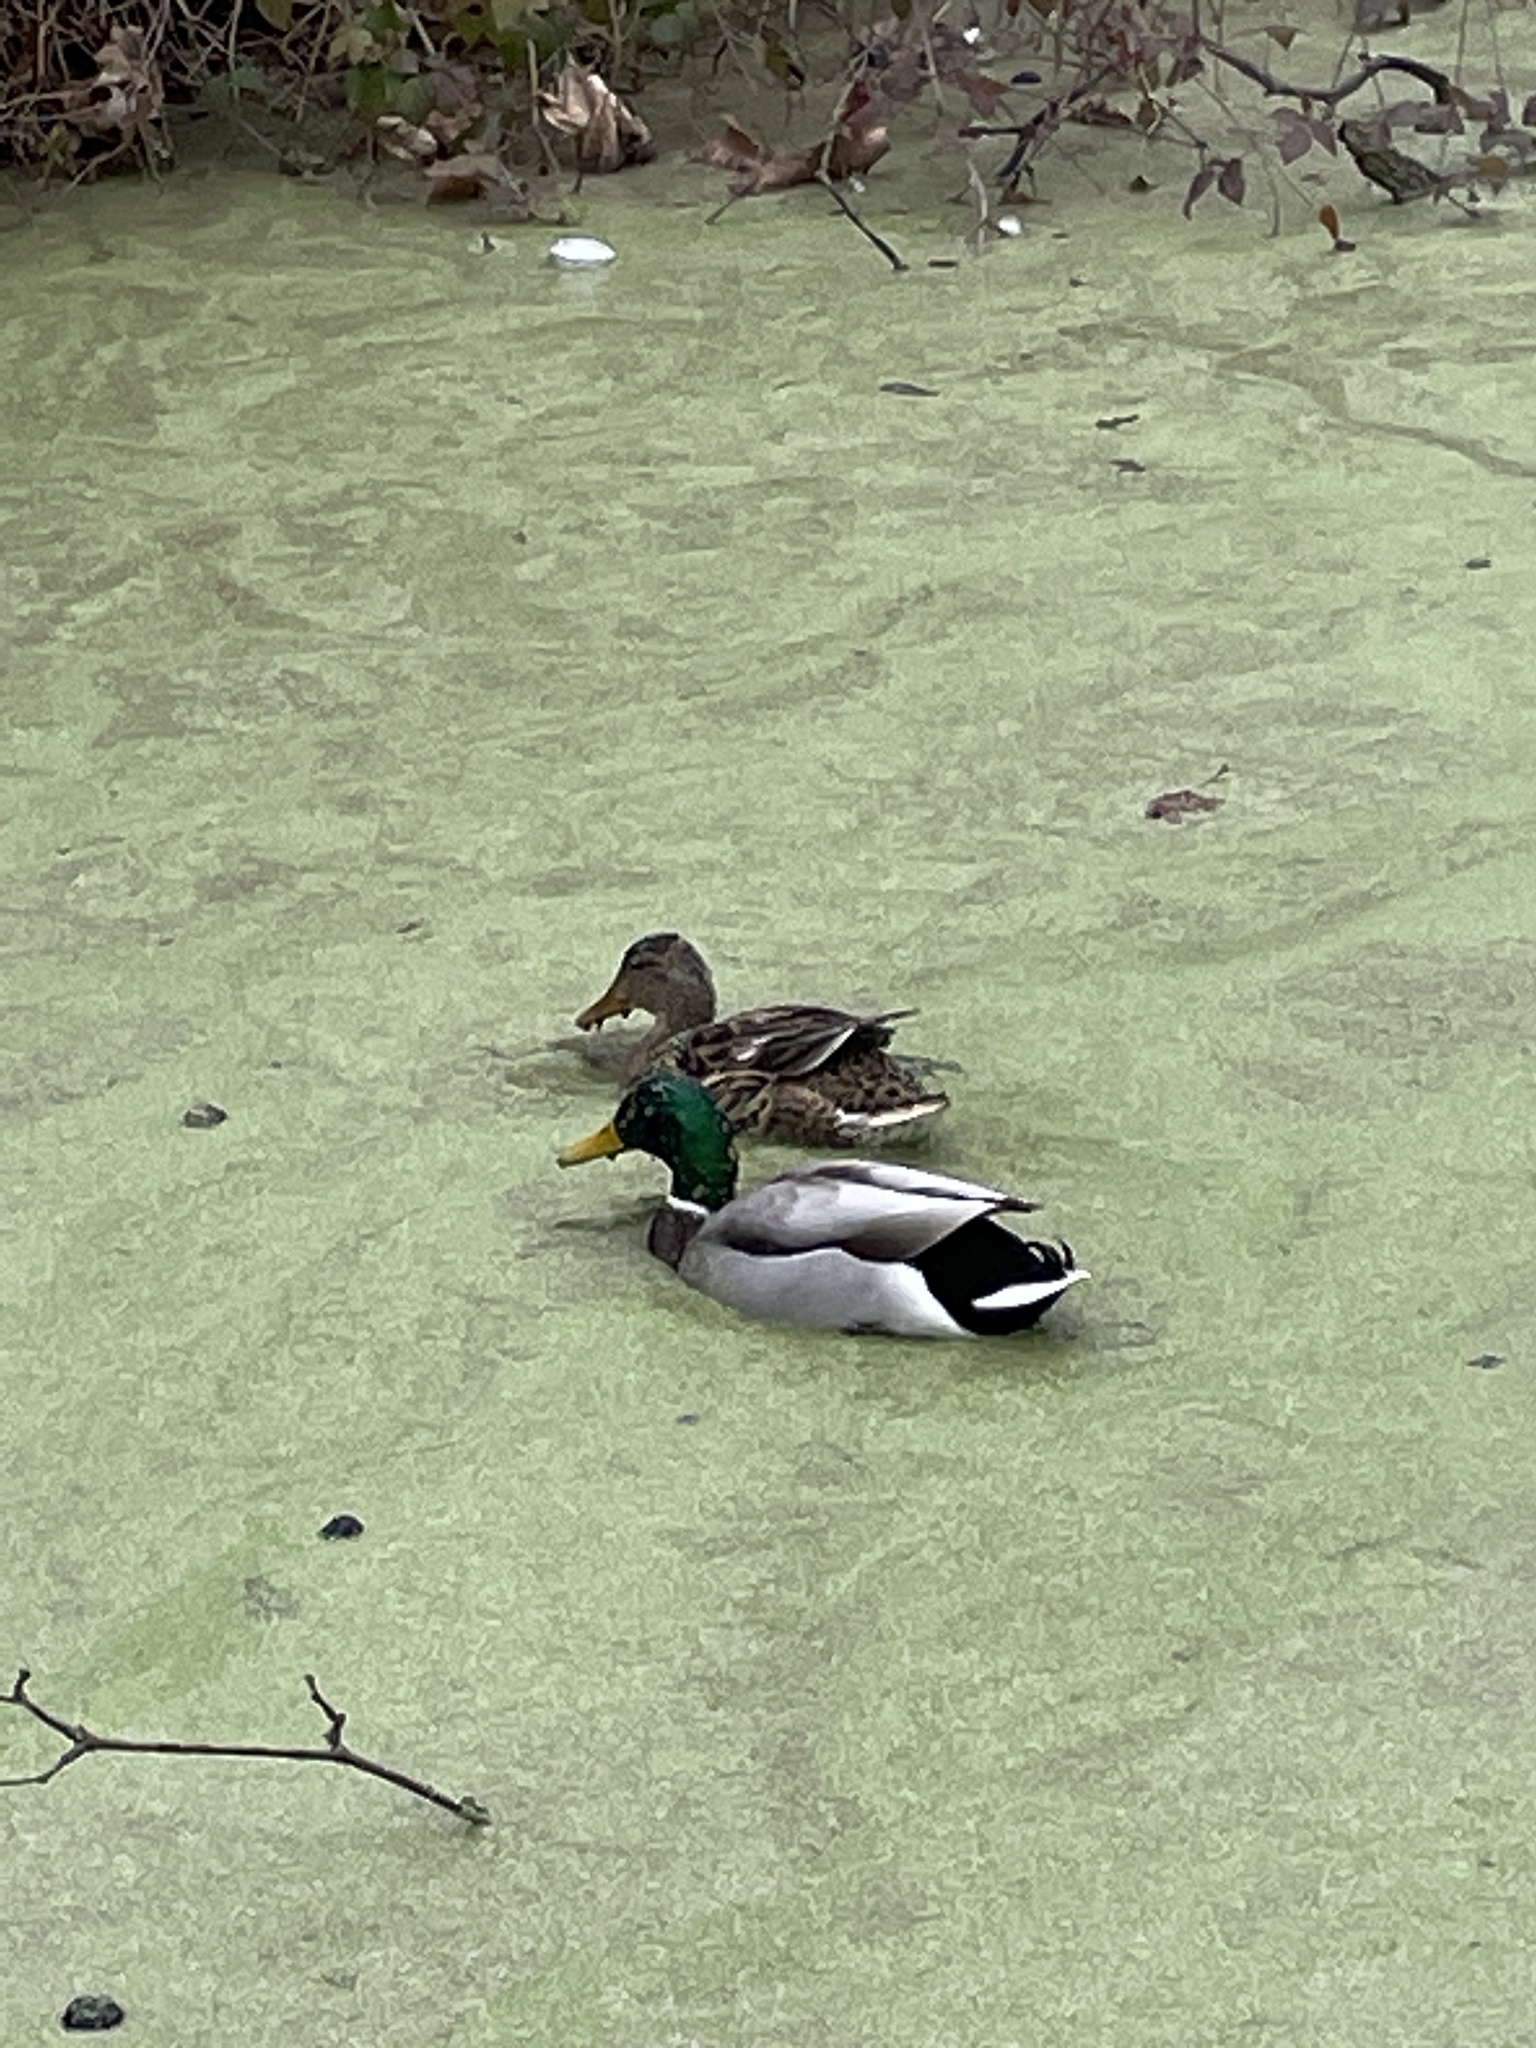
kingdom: Animalia
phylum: Chordata
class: Aves
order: Anseriformes
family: Anatidae
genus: Anas
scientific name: Anas platyrhynchos
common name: Mallard
